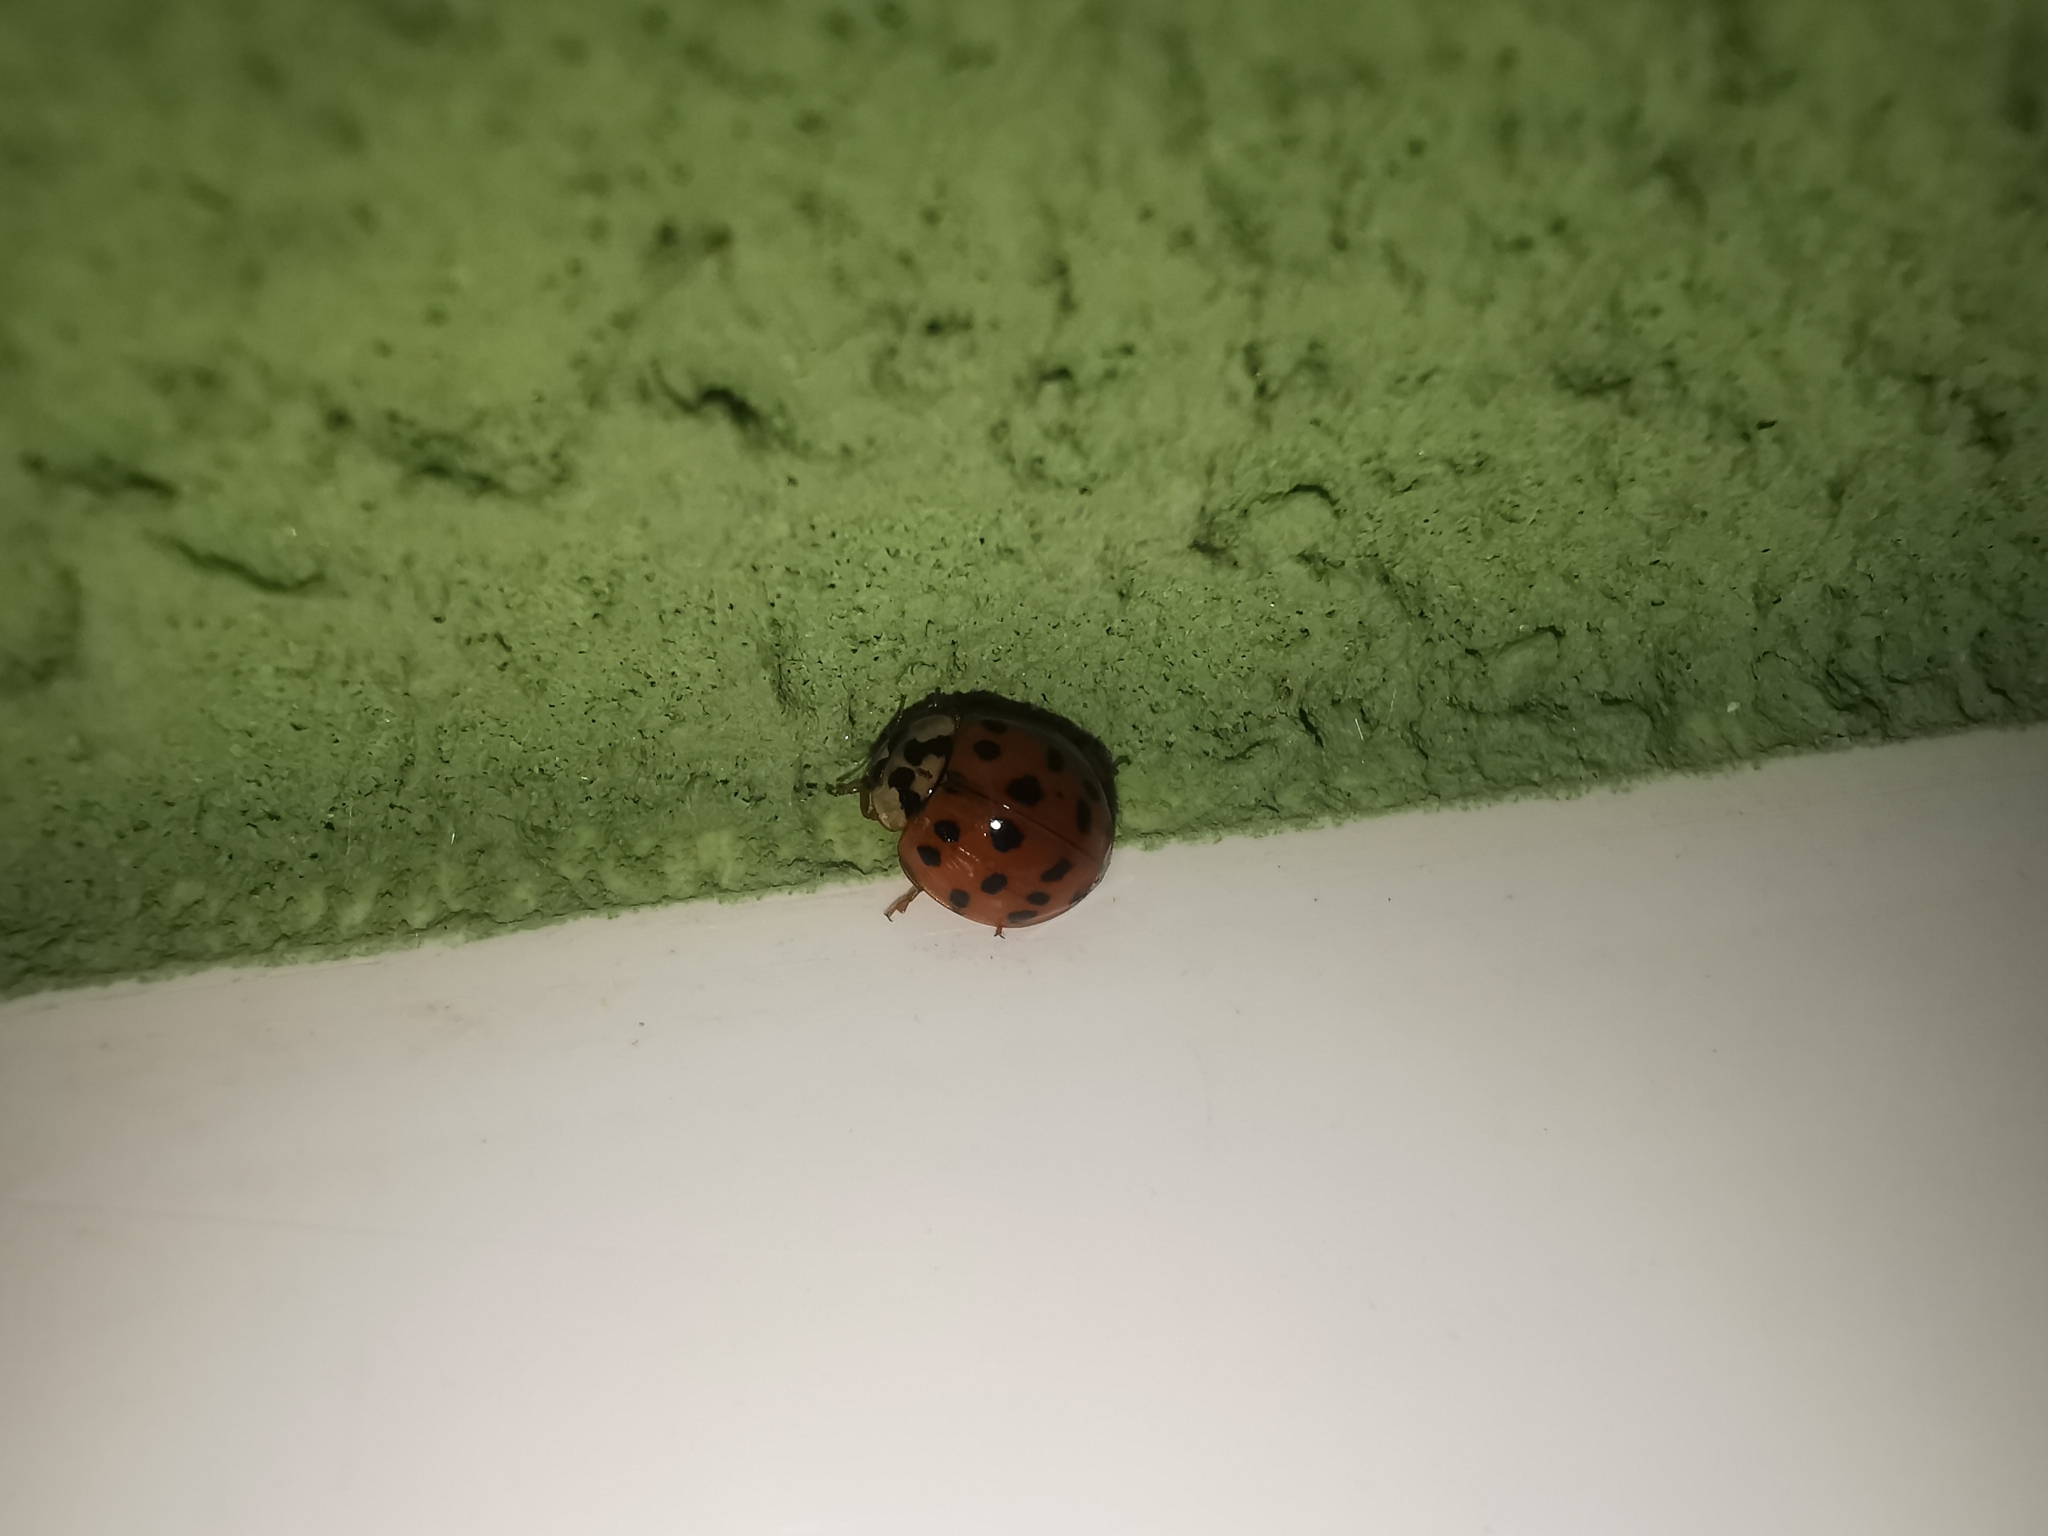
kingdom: Animalia
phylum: Arthropoda
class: Insecta
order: Coleoptera
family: Coccinellidae
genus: Harmonia
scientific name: Harmonia axyridis
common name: Harlequin ladybird
